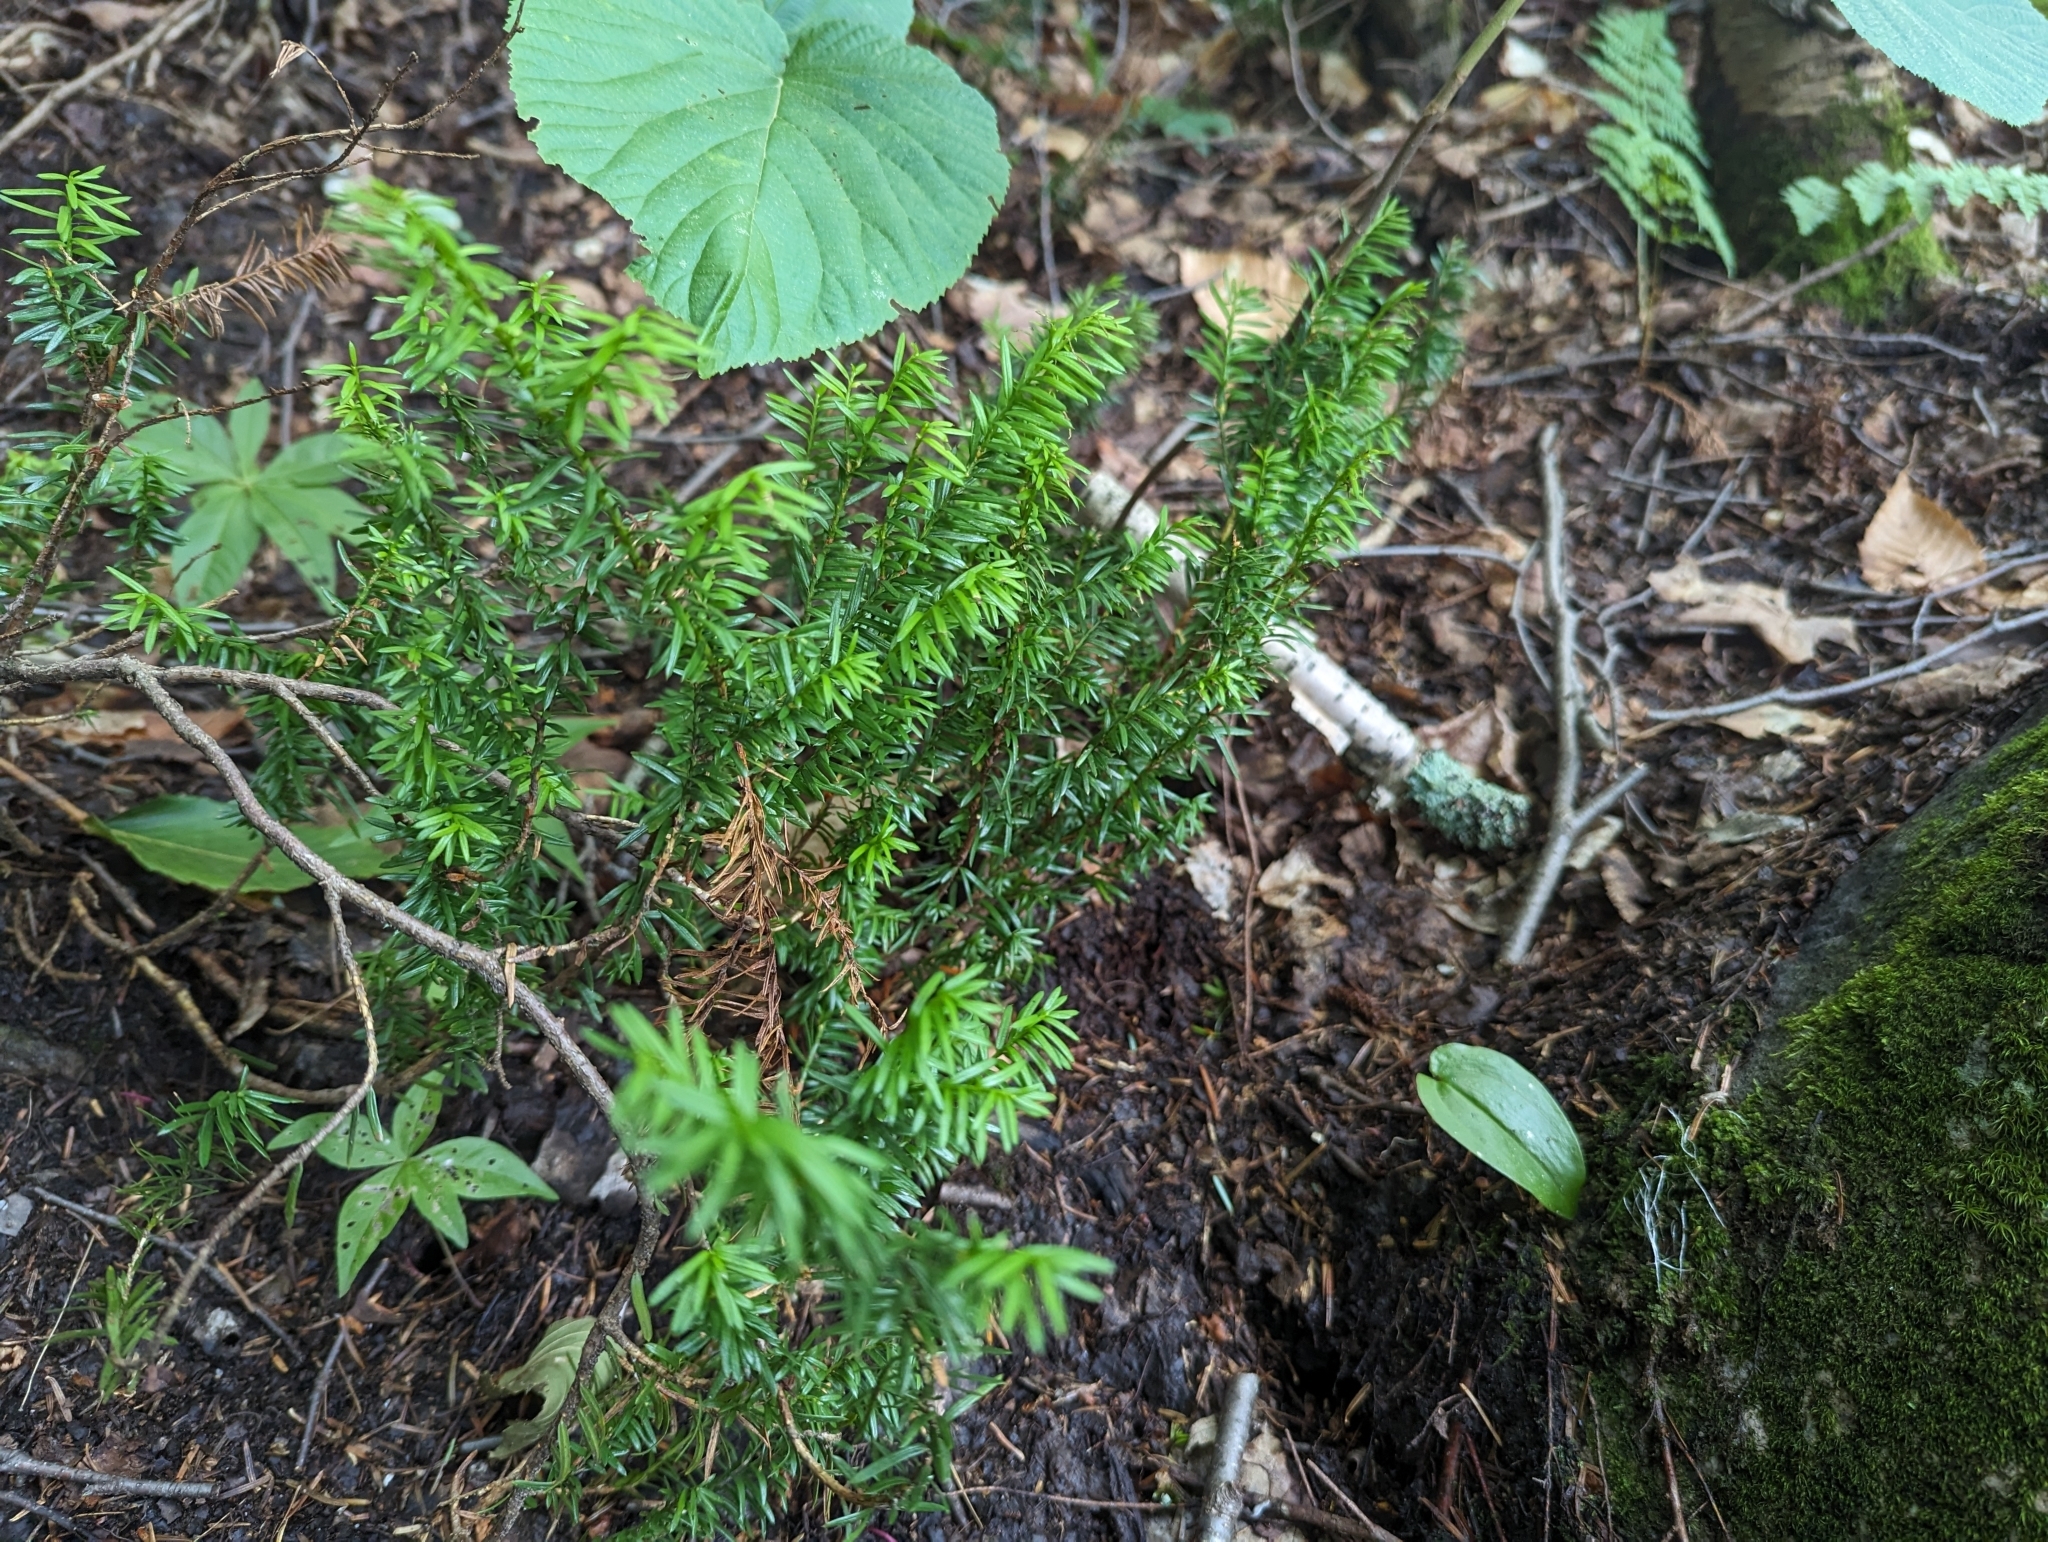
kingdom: Plantae
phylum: Tracheophyta
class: Pinopsida
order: Pinales
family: Taxaceae
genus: Taxus
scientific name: Taxus canadensis
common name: American yew
